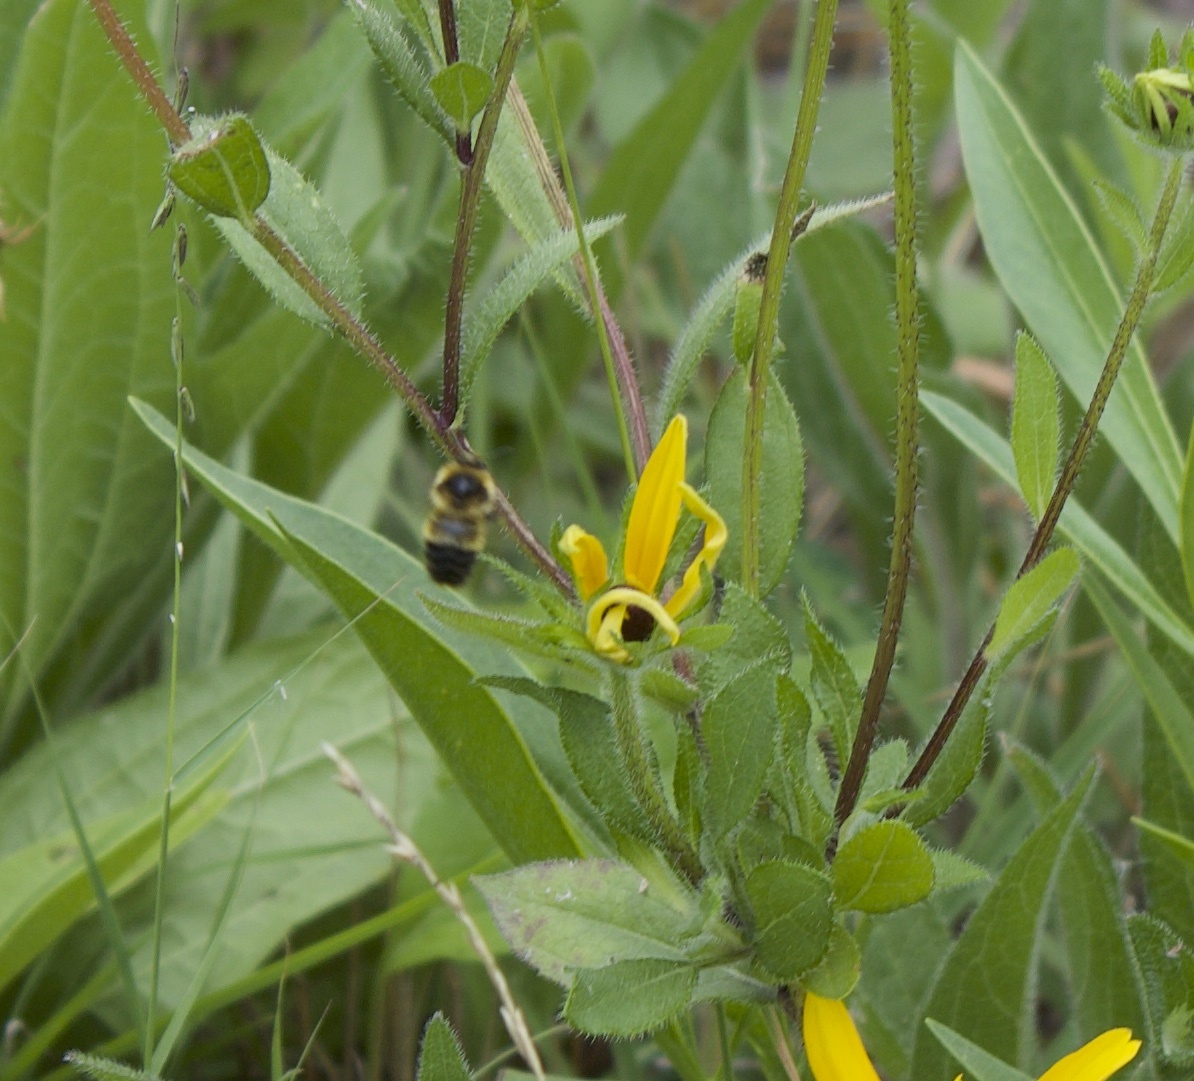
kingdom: Animalia
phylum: Arthropoda
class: Insecta
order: Hymenoptera
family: Apidae
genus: Bombus
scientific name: Bombus rufocinctus
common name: Red-belted bumble bee
